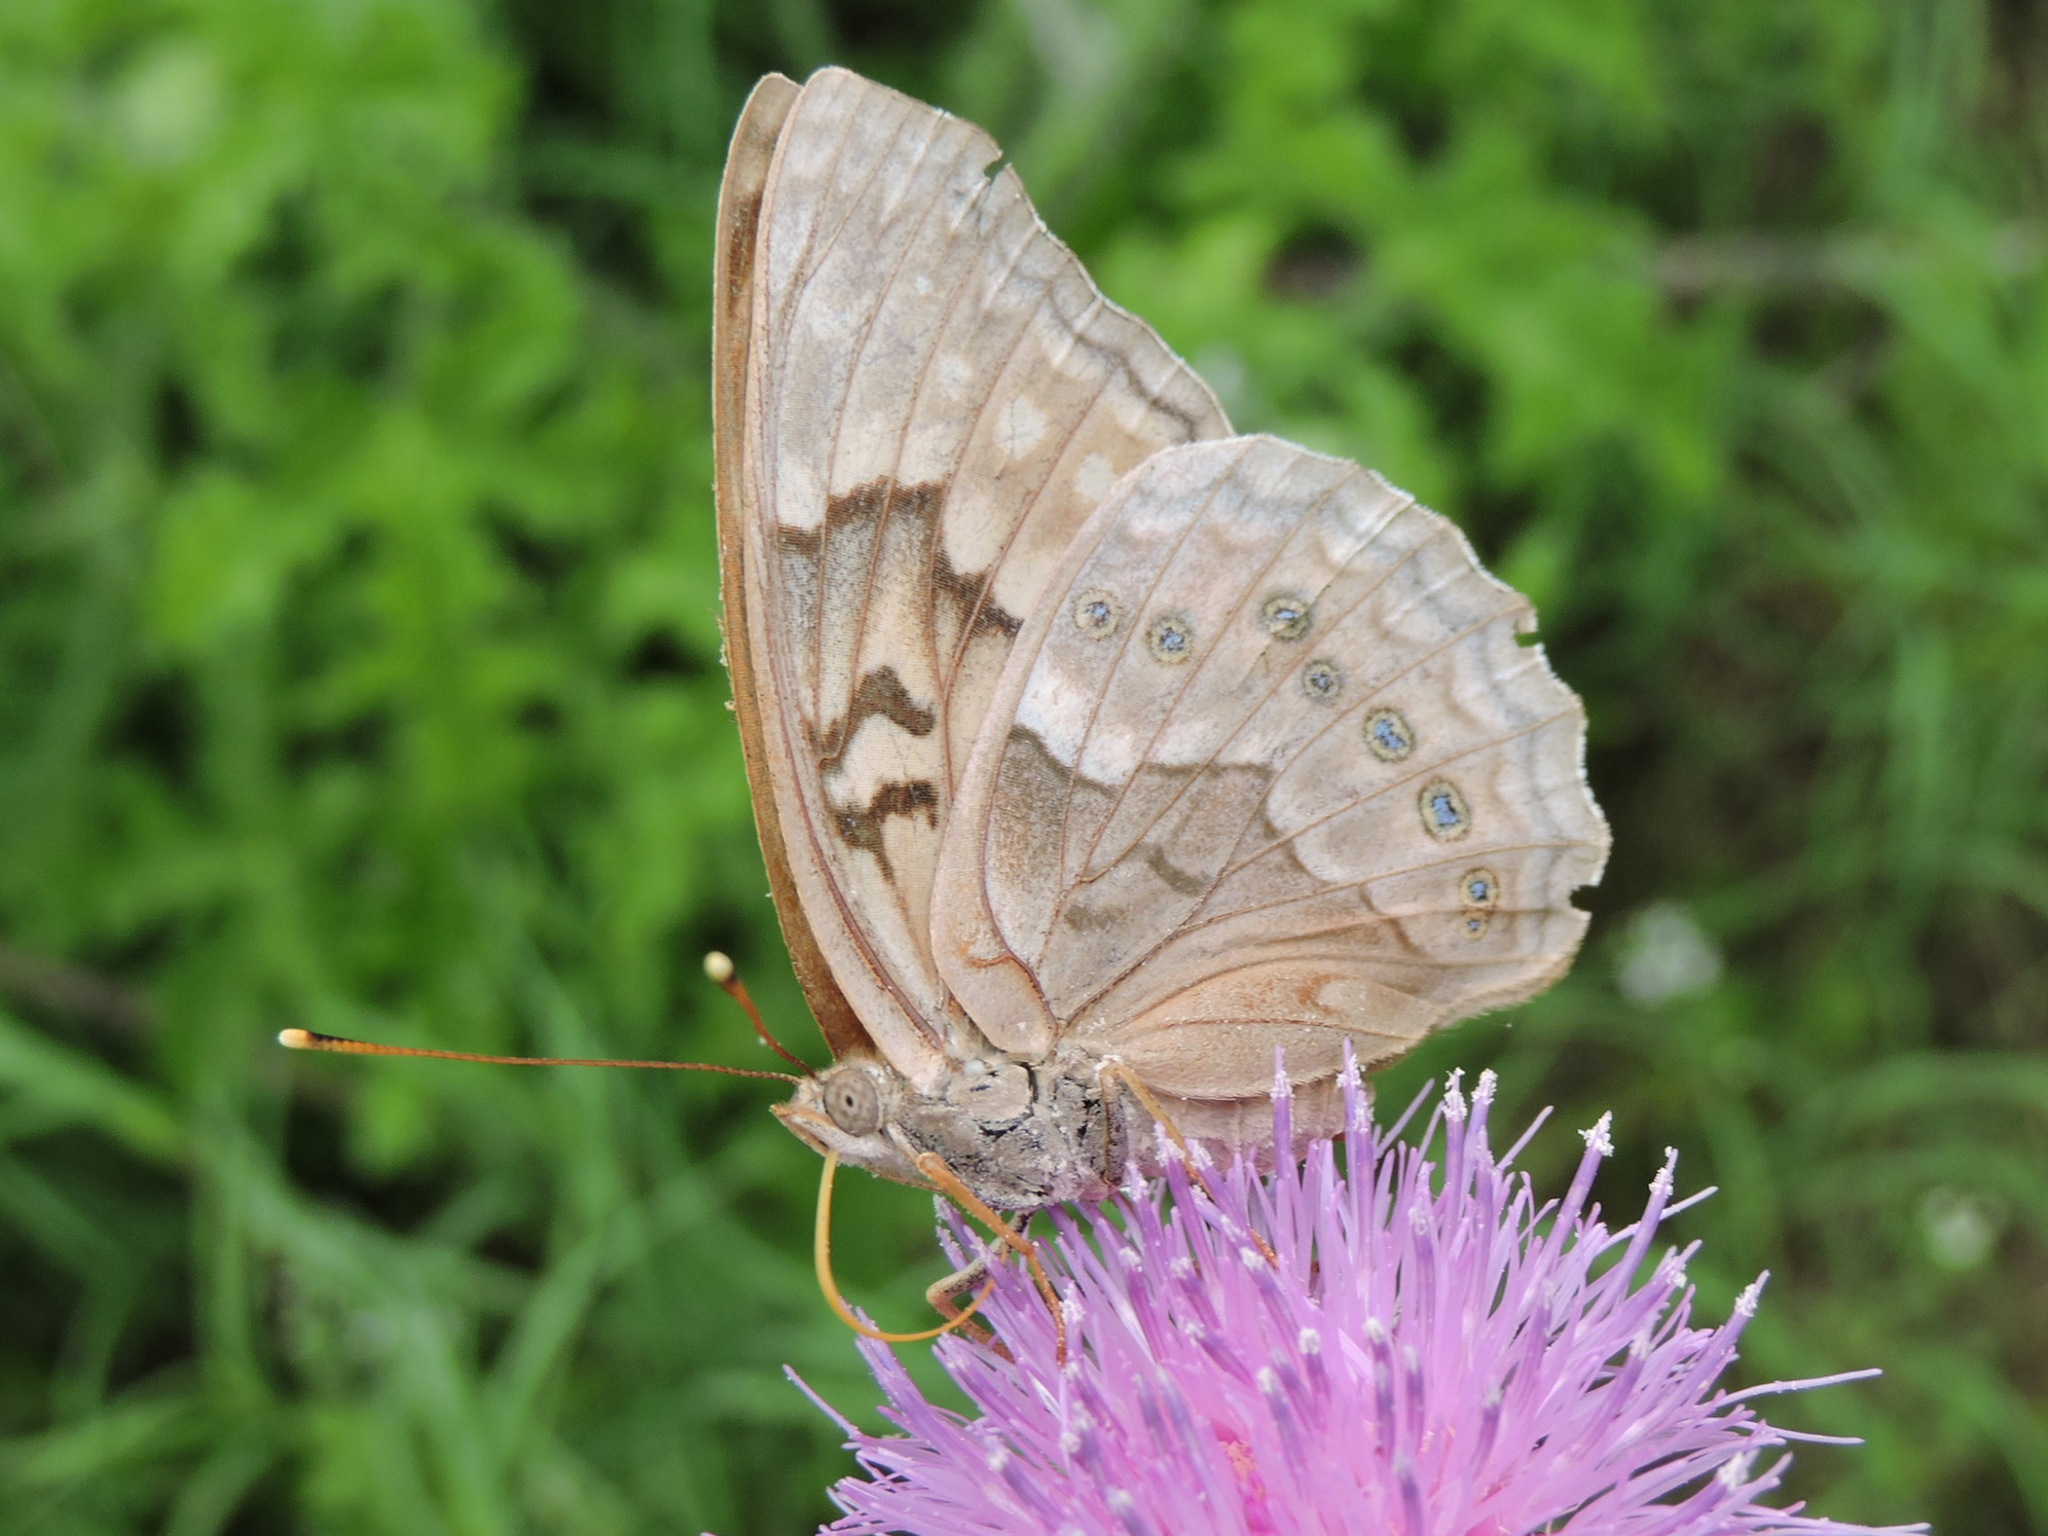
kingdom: Animalia
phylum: Arthropoda
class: Insecta
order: Lepidoptera
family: Nymphalidae
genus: Asterocampa
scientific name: Asterocampa clyton
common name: Tawny emperor
